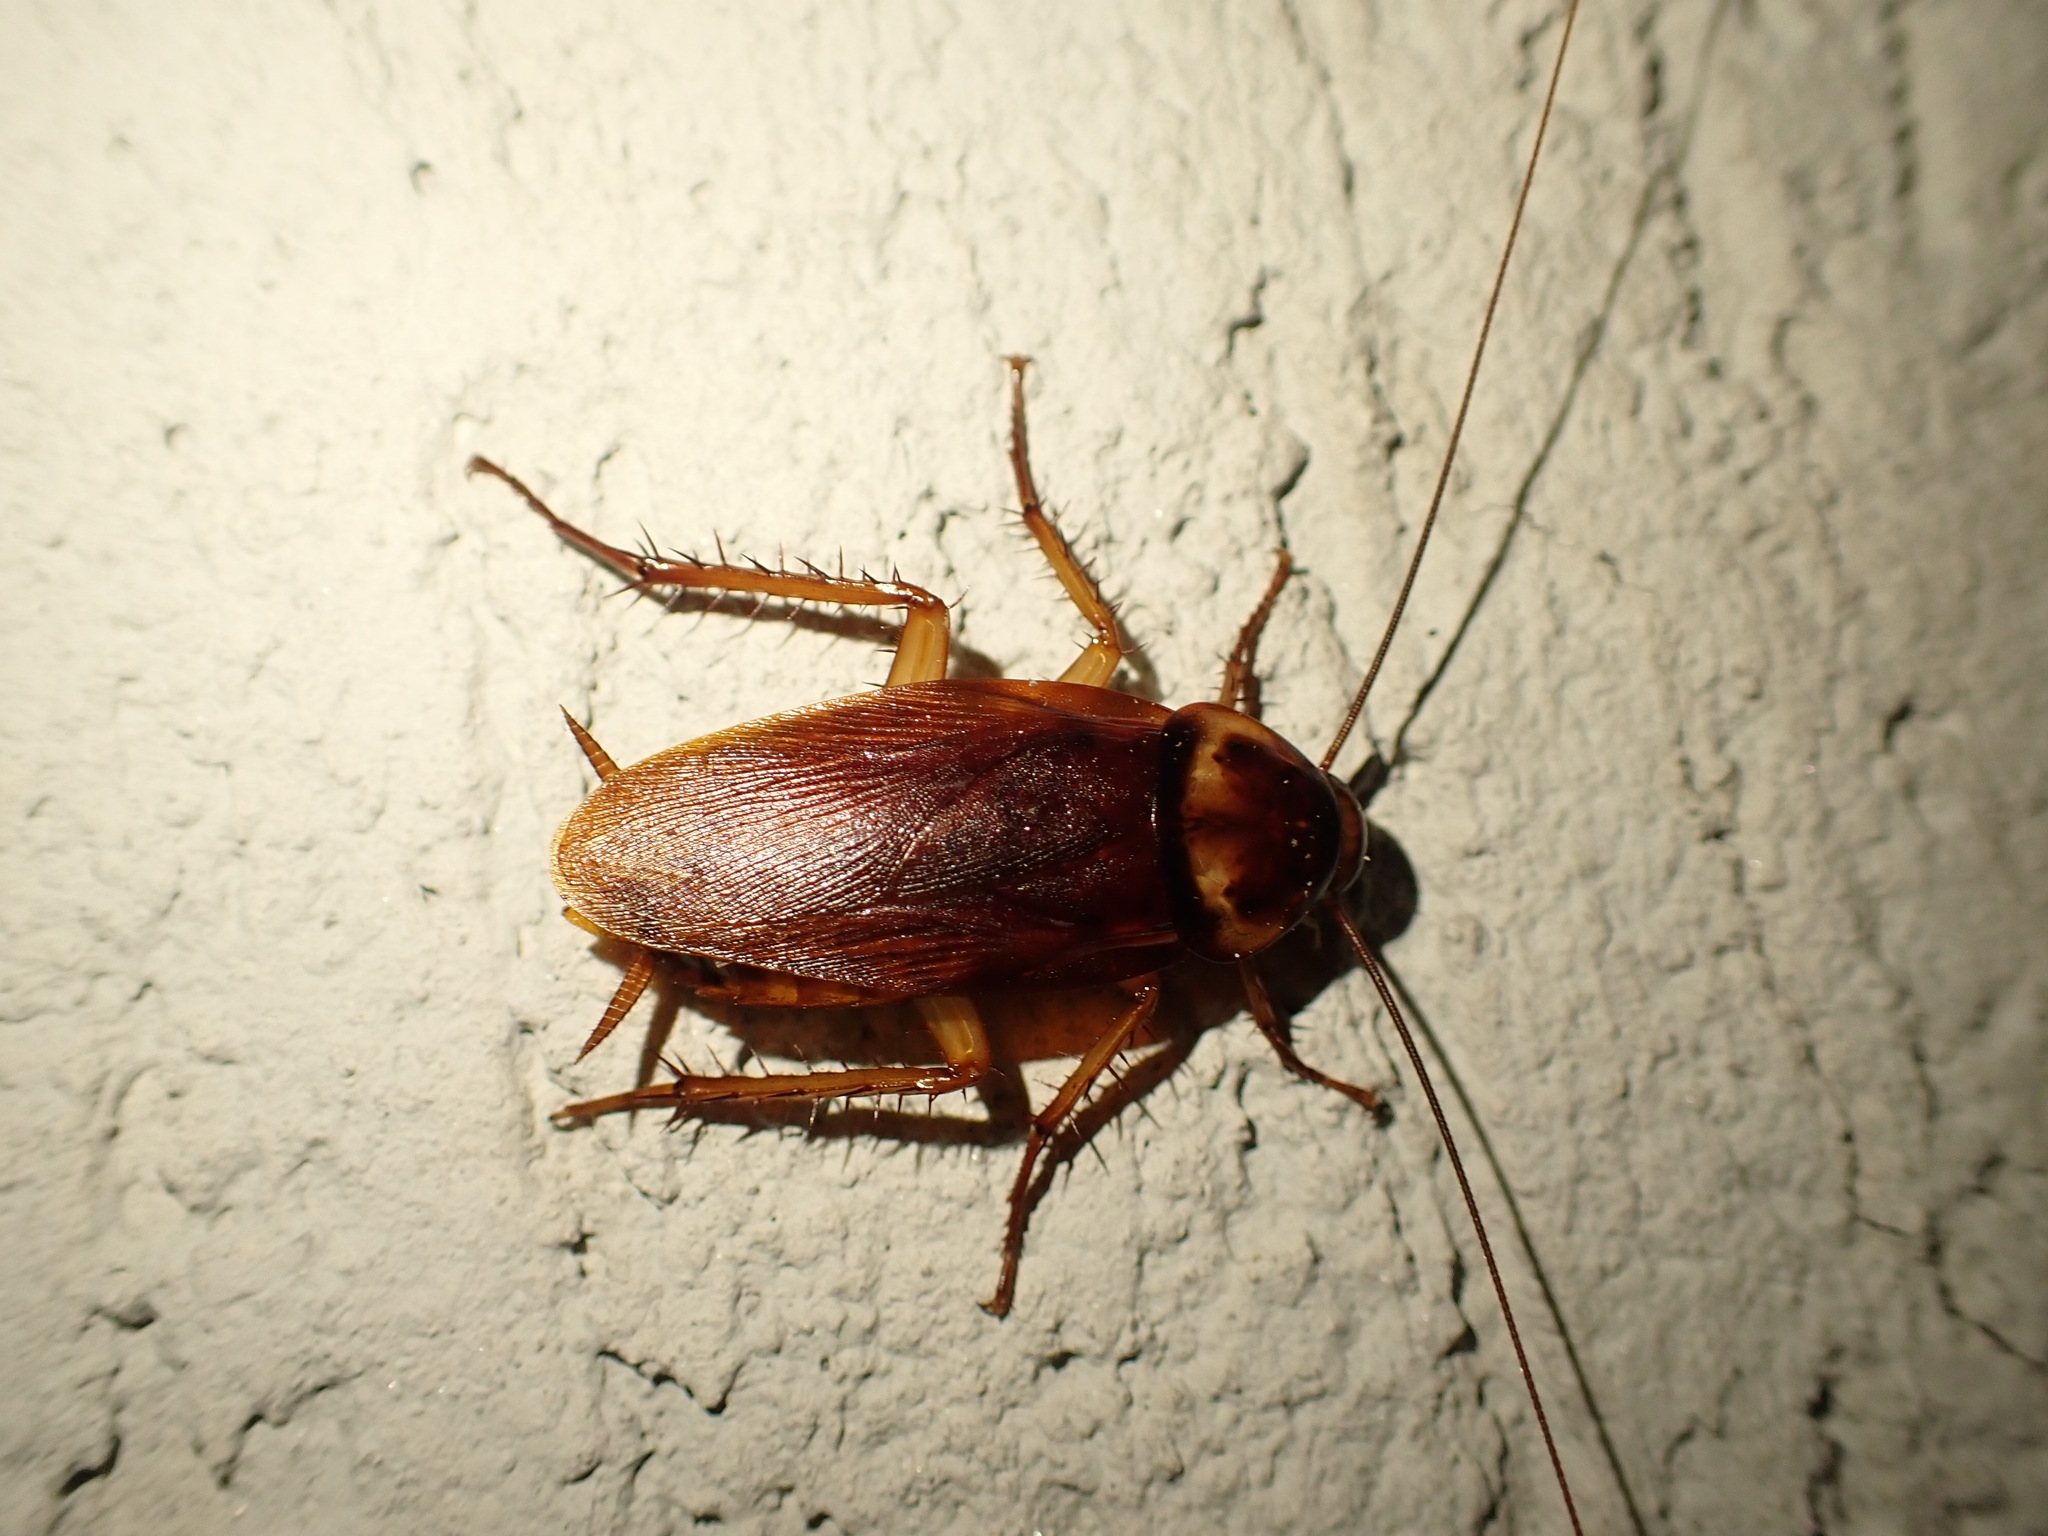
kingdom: Animalia
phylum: Arthropoda
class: Insecta
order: Blattodea
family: Blattidae
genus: Periplaneta
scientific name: Periplaneta americana
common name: American cockroach
